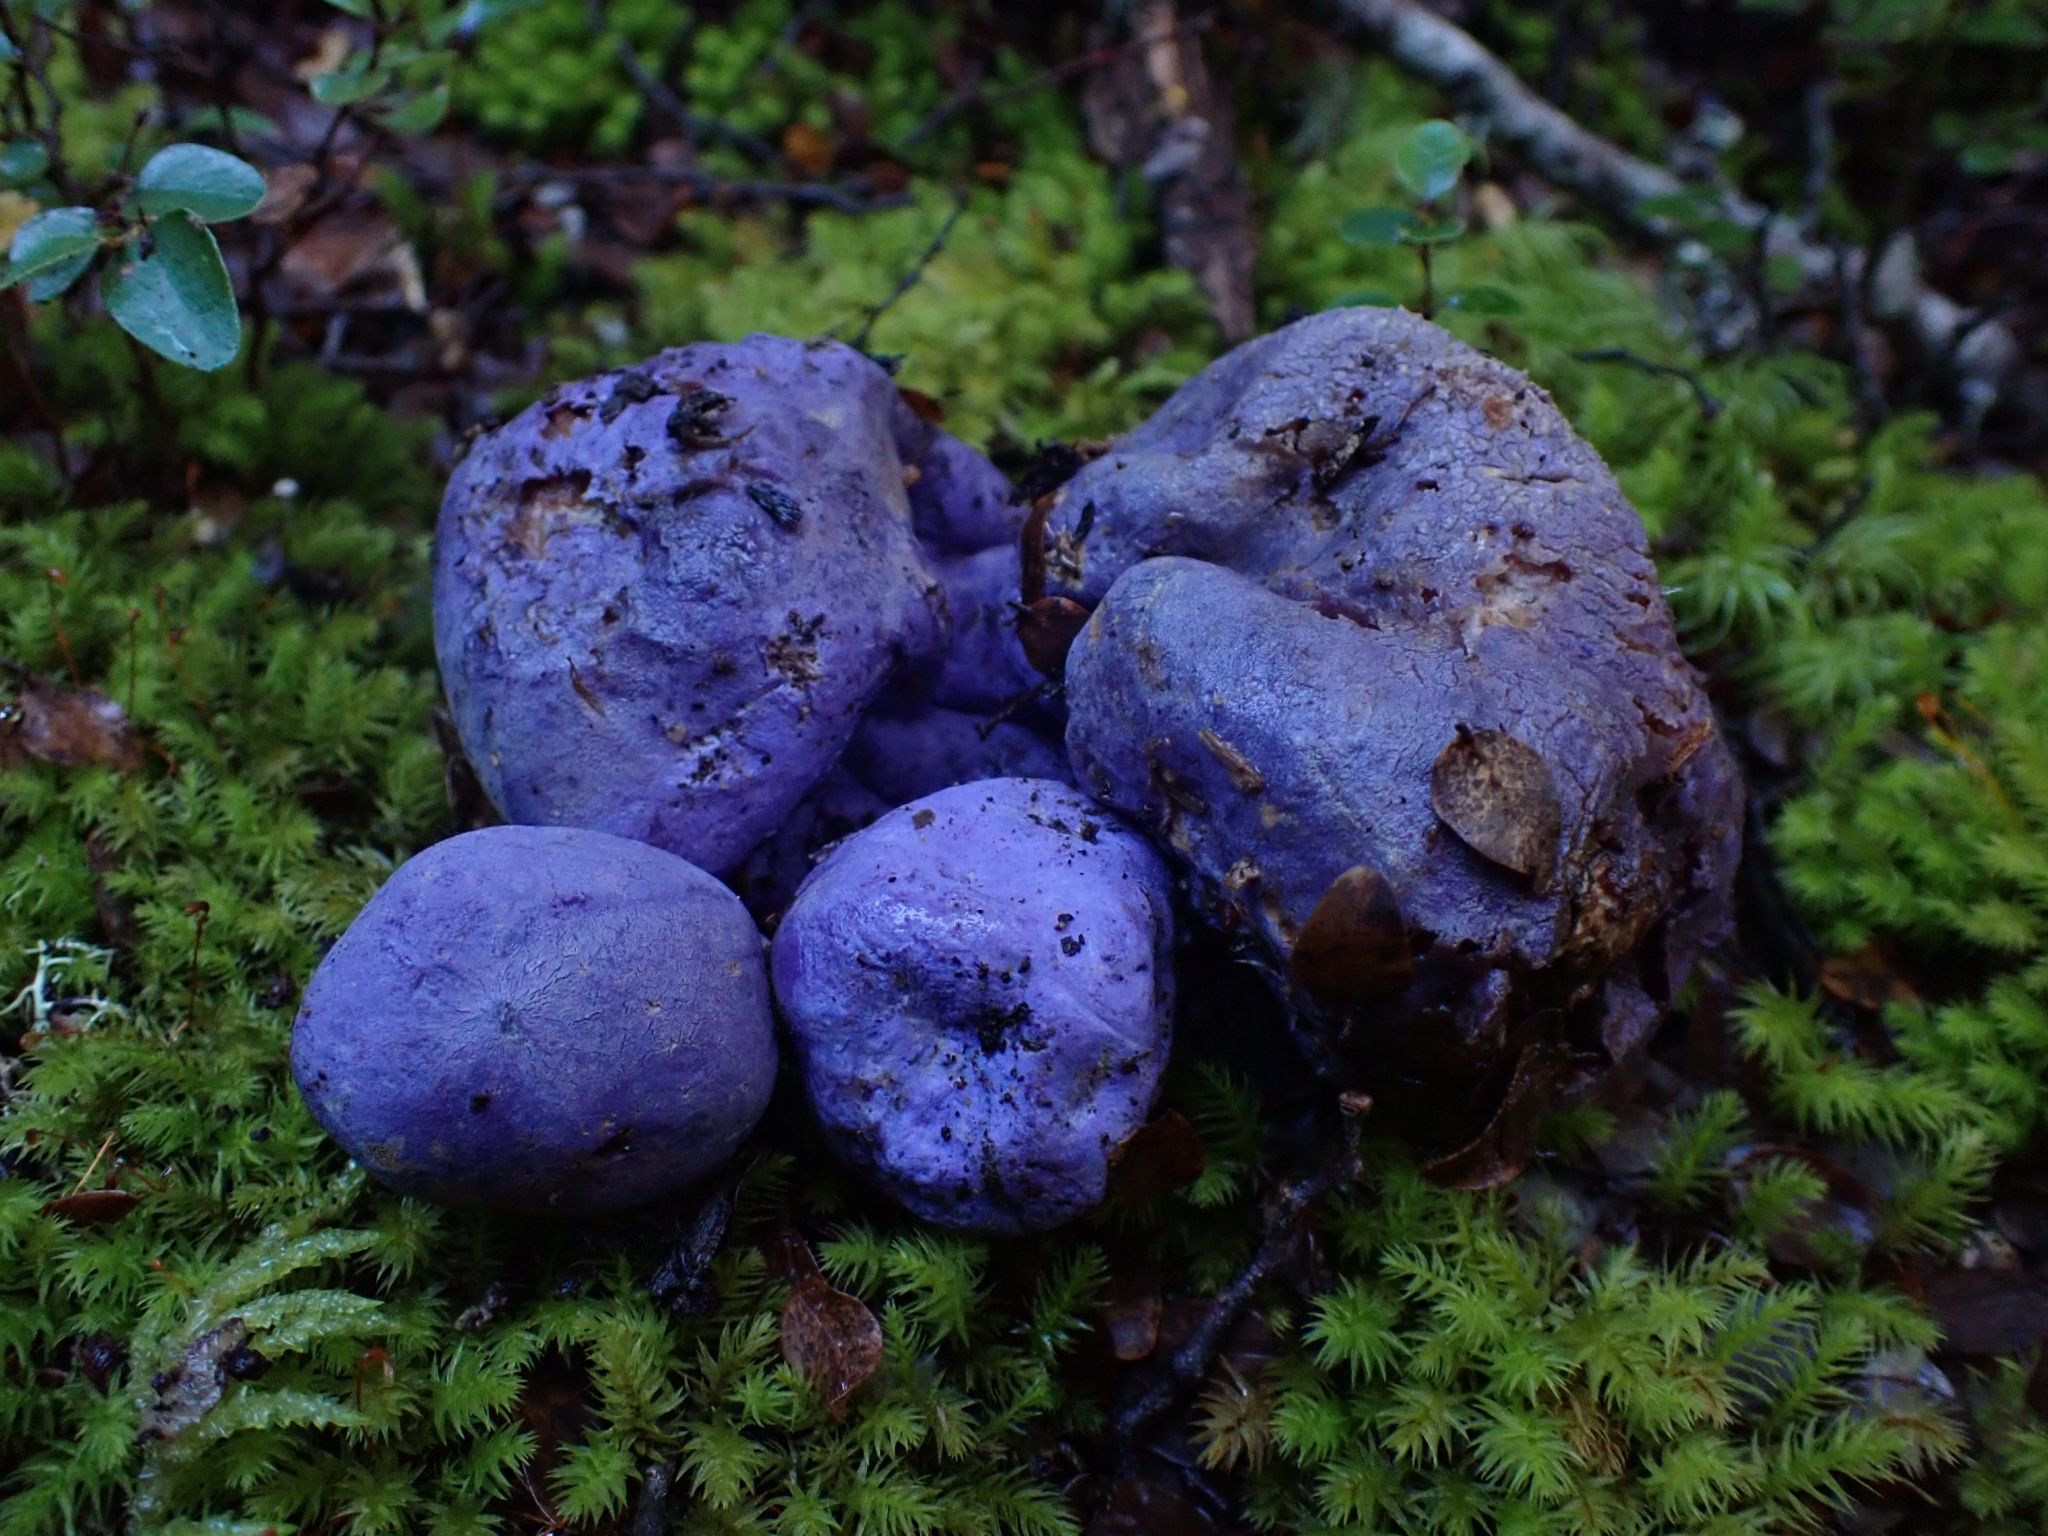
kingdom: Fungi
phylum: Basidiomycota
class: Agaricomycetes
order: Hysterangiales
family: Gallaceaceae
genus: Gallacea
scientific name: Gallacea scleroderma
